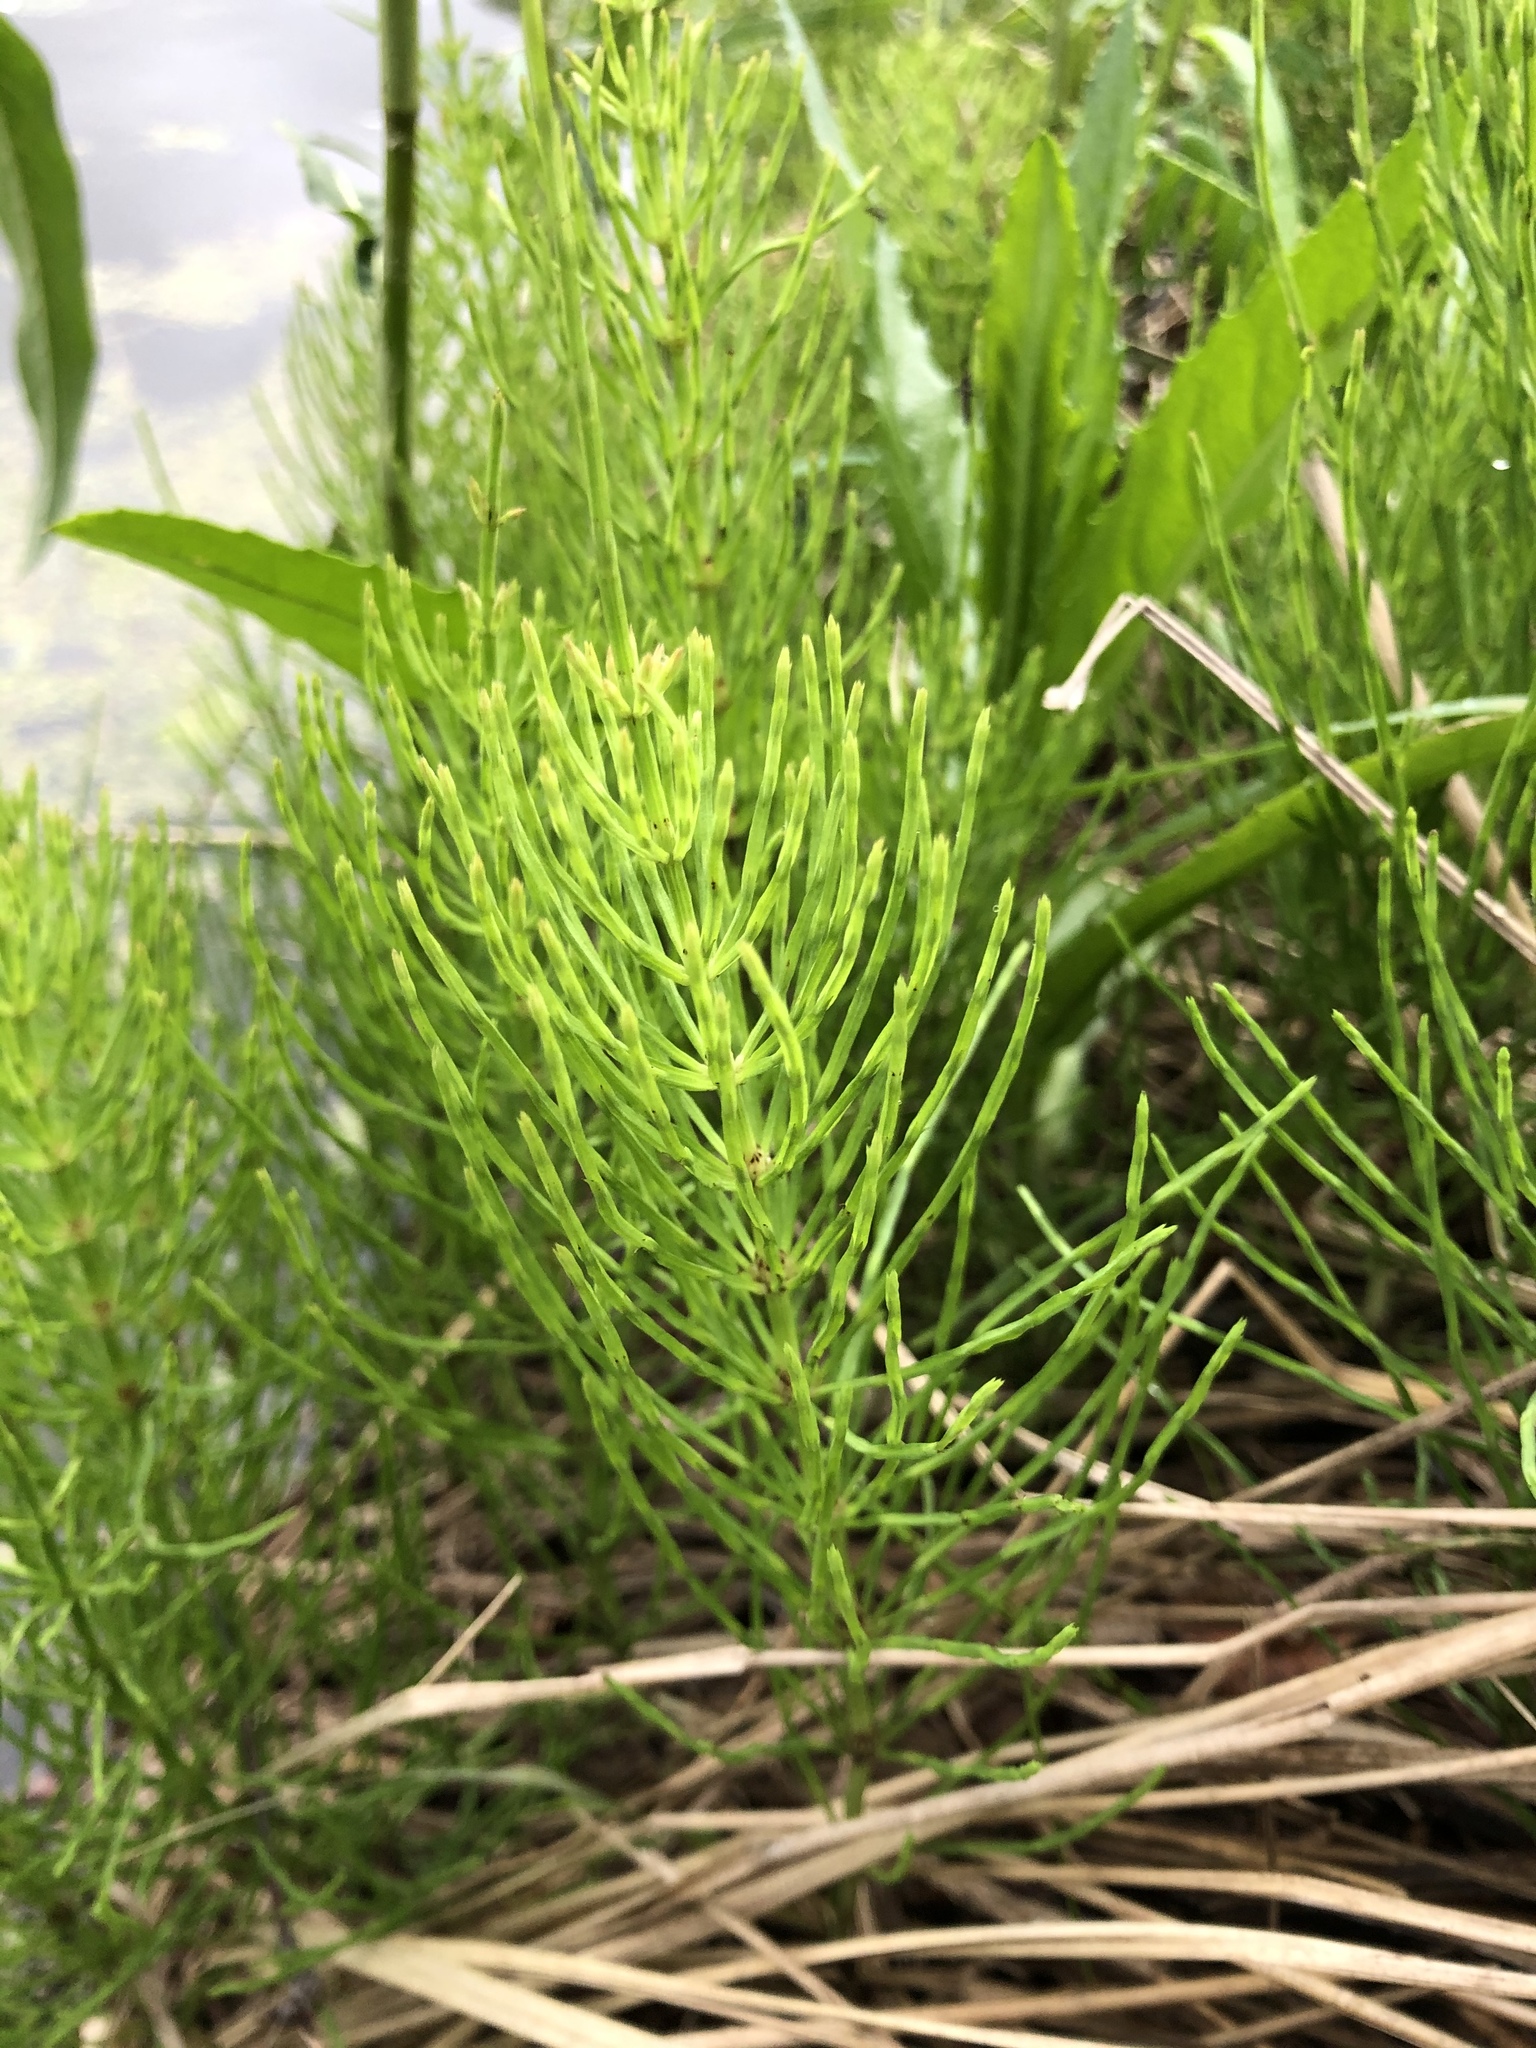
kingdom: Plantae
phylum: Tracheophyta
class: Polypodiopsida
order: Equisetales
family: Equisetaceae
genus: Equisetum
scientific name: Equisetum arvense
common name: Field horsetail
